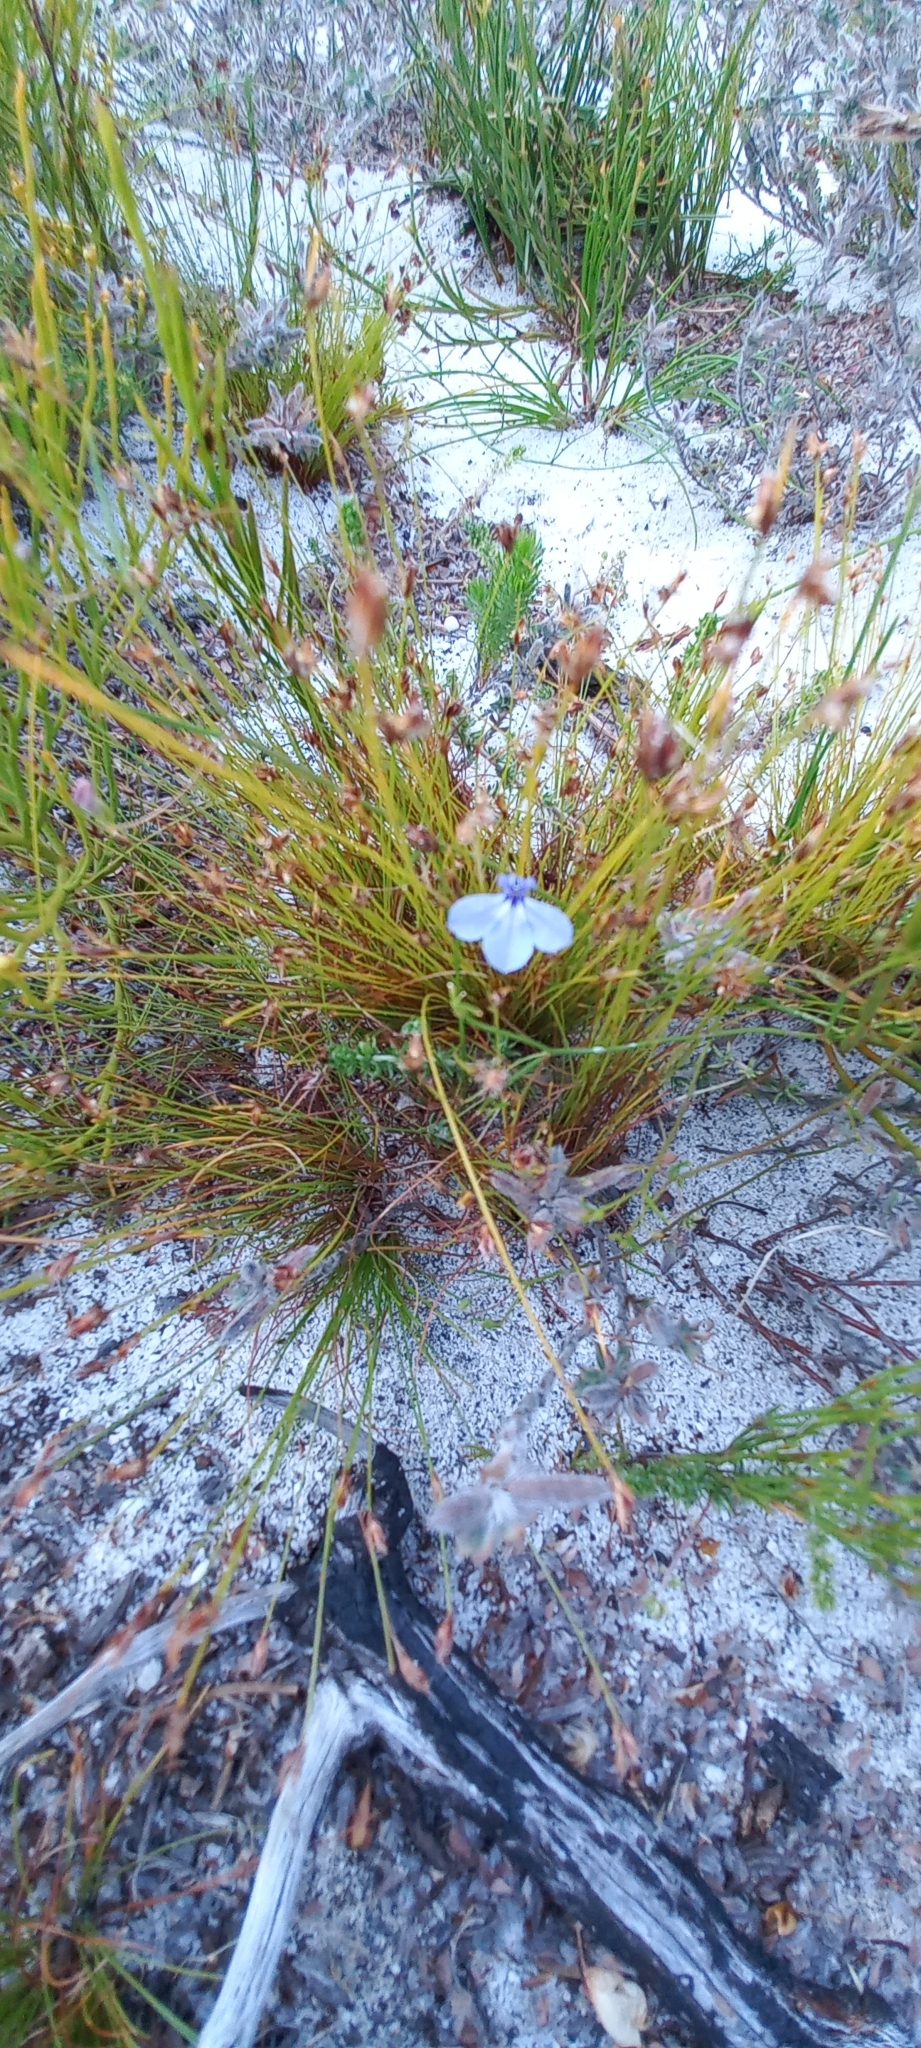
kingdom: Plantae
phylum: Tracheophyta
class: Magnoliopsida
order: Asterales
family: Campanulaceae
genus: Lobelia
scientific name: Lobelia setacea
